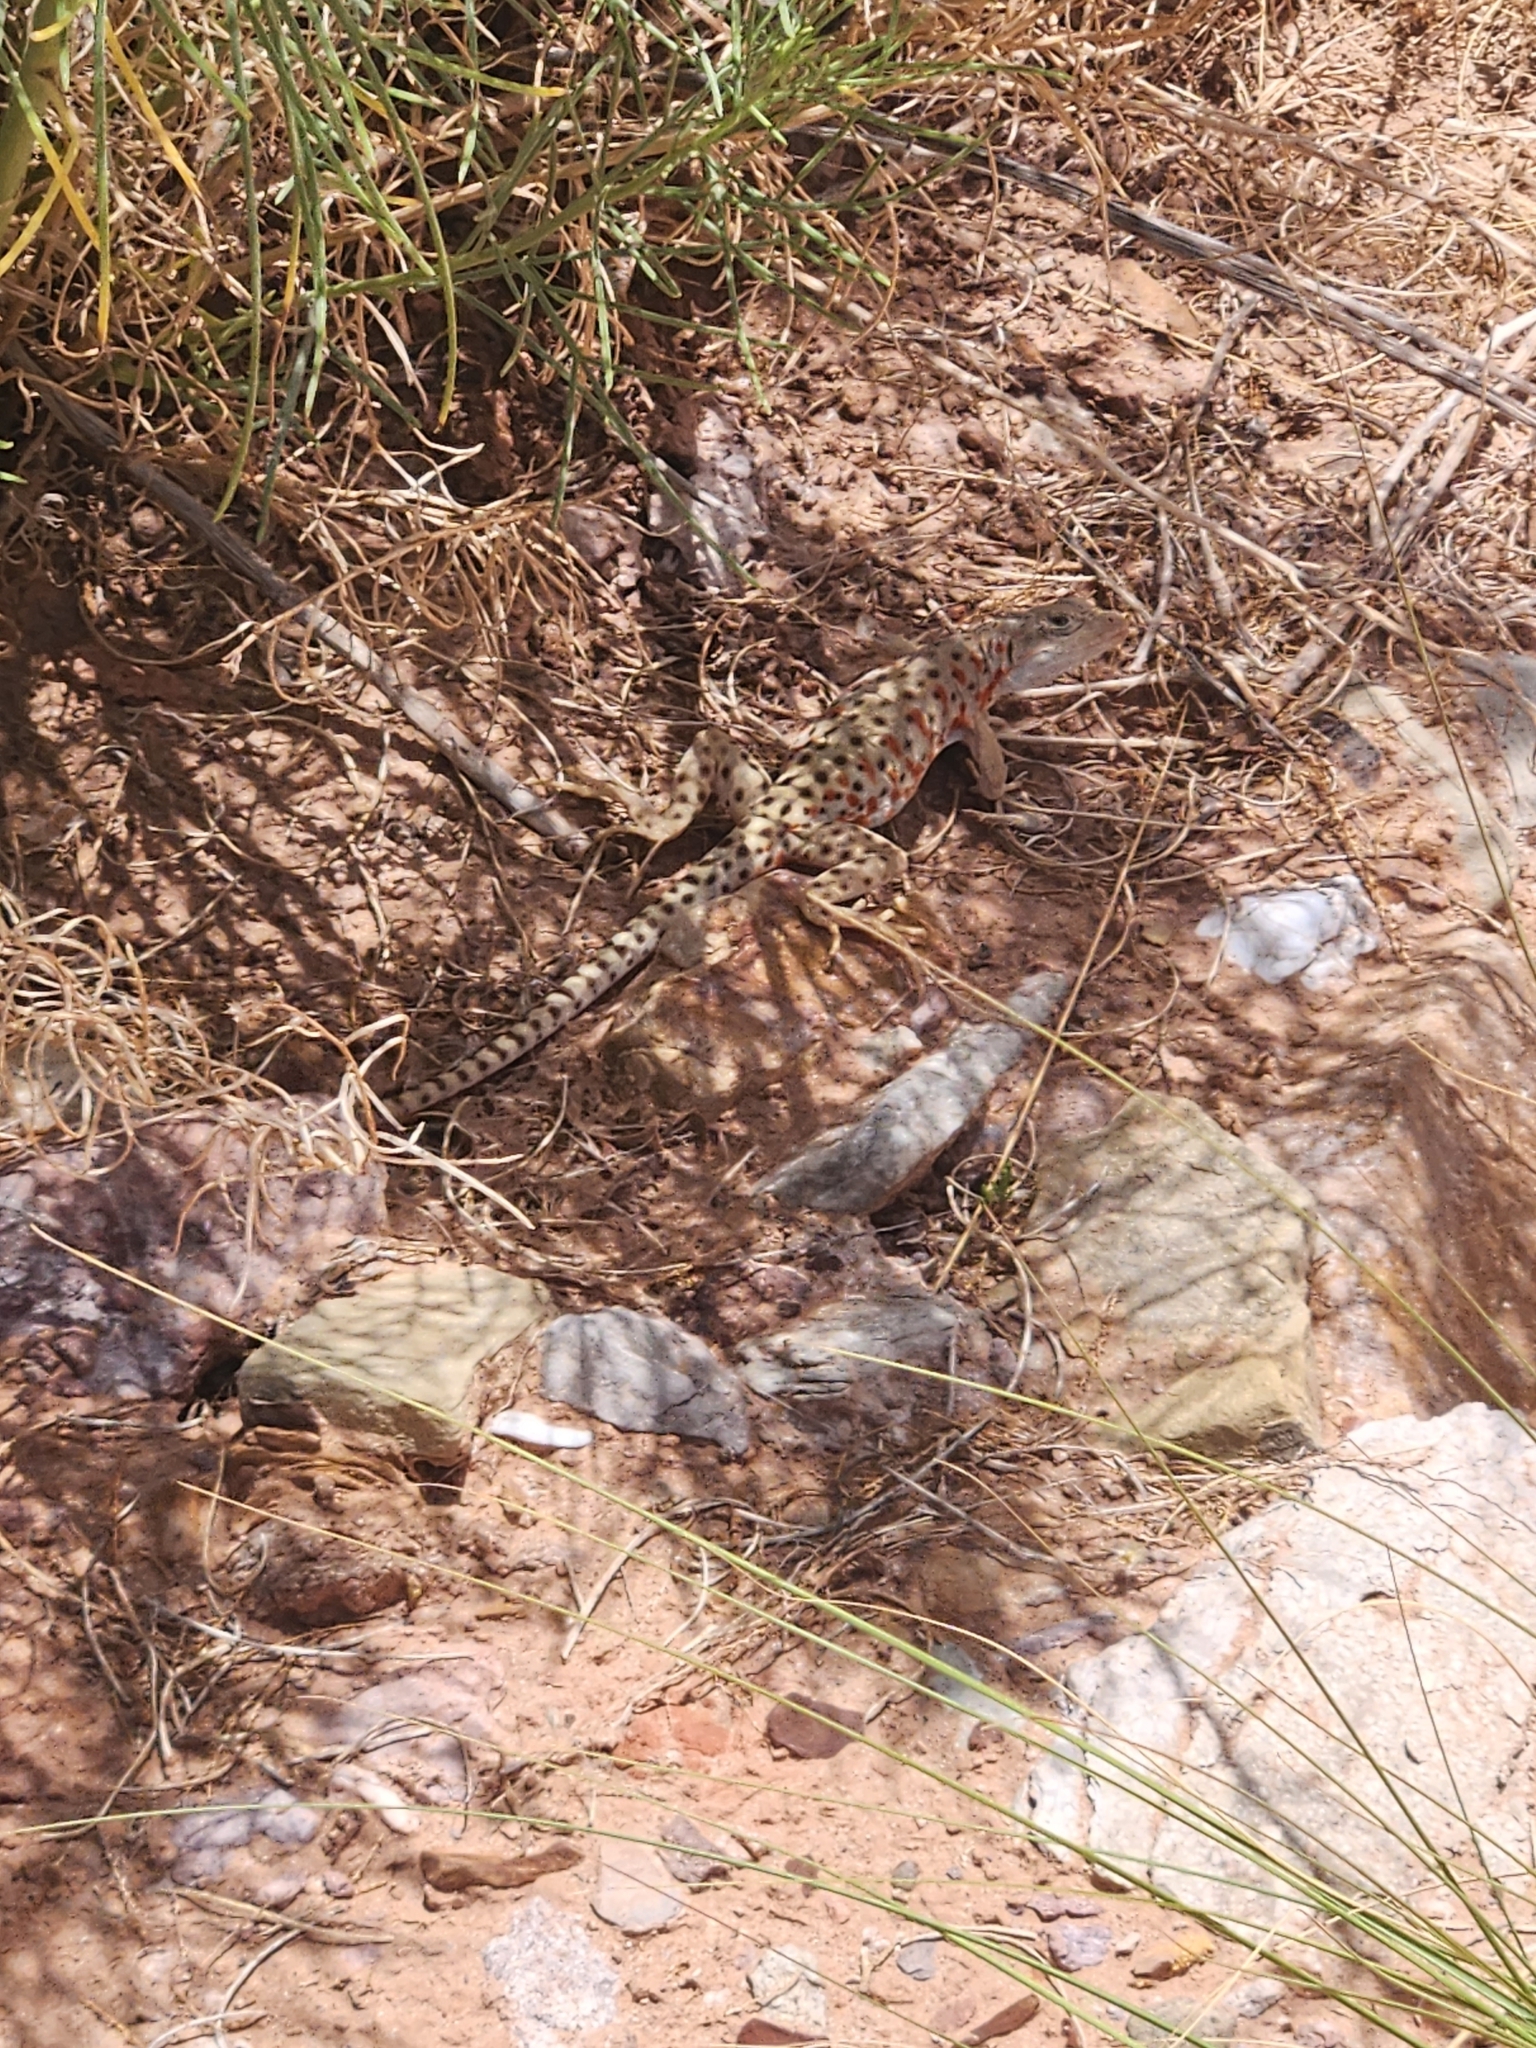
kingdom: Animalia
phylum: Chordata
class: Squamata
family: Crotaphytidae
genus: Gambelia
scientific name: Gambelia wislizenii
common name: Longnose leopard lizard
